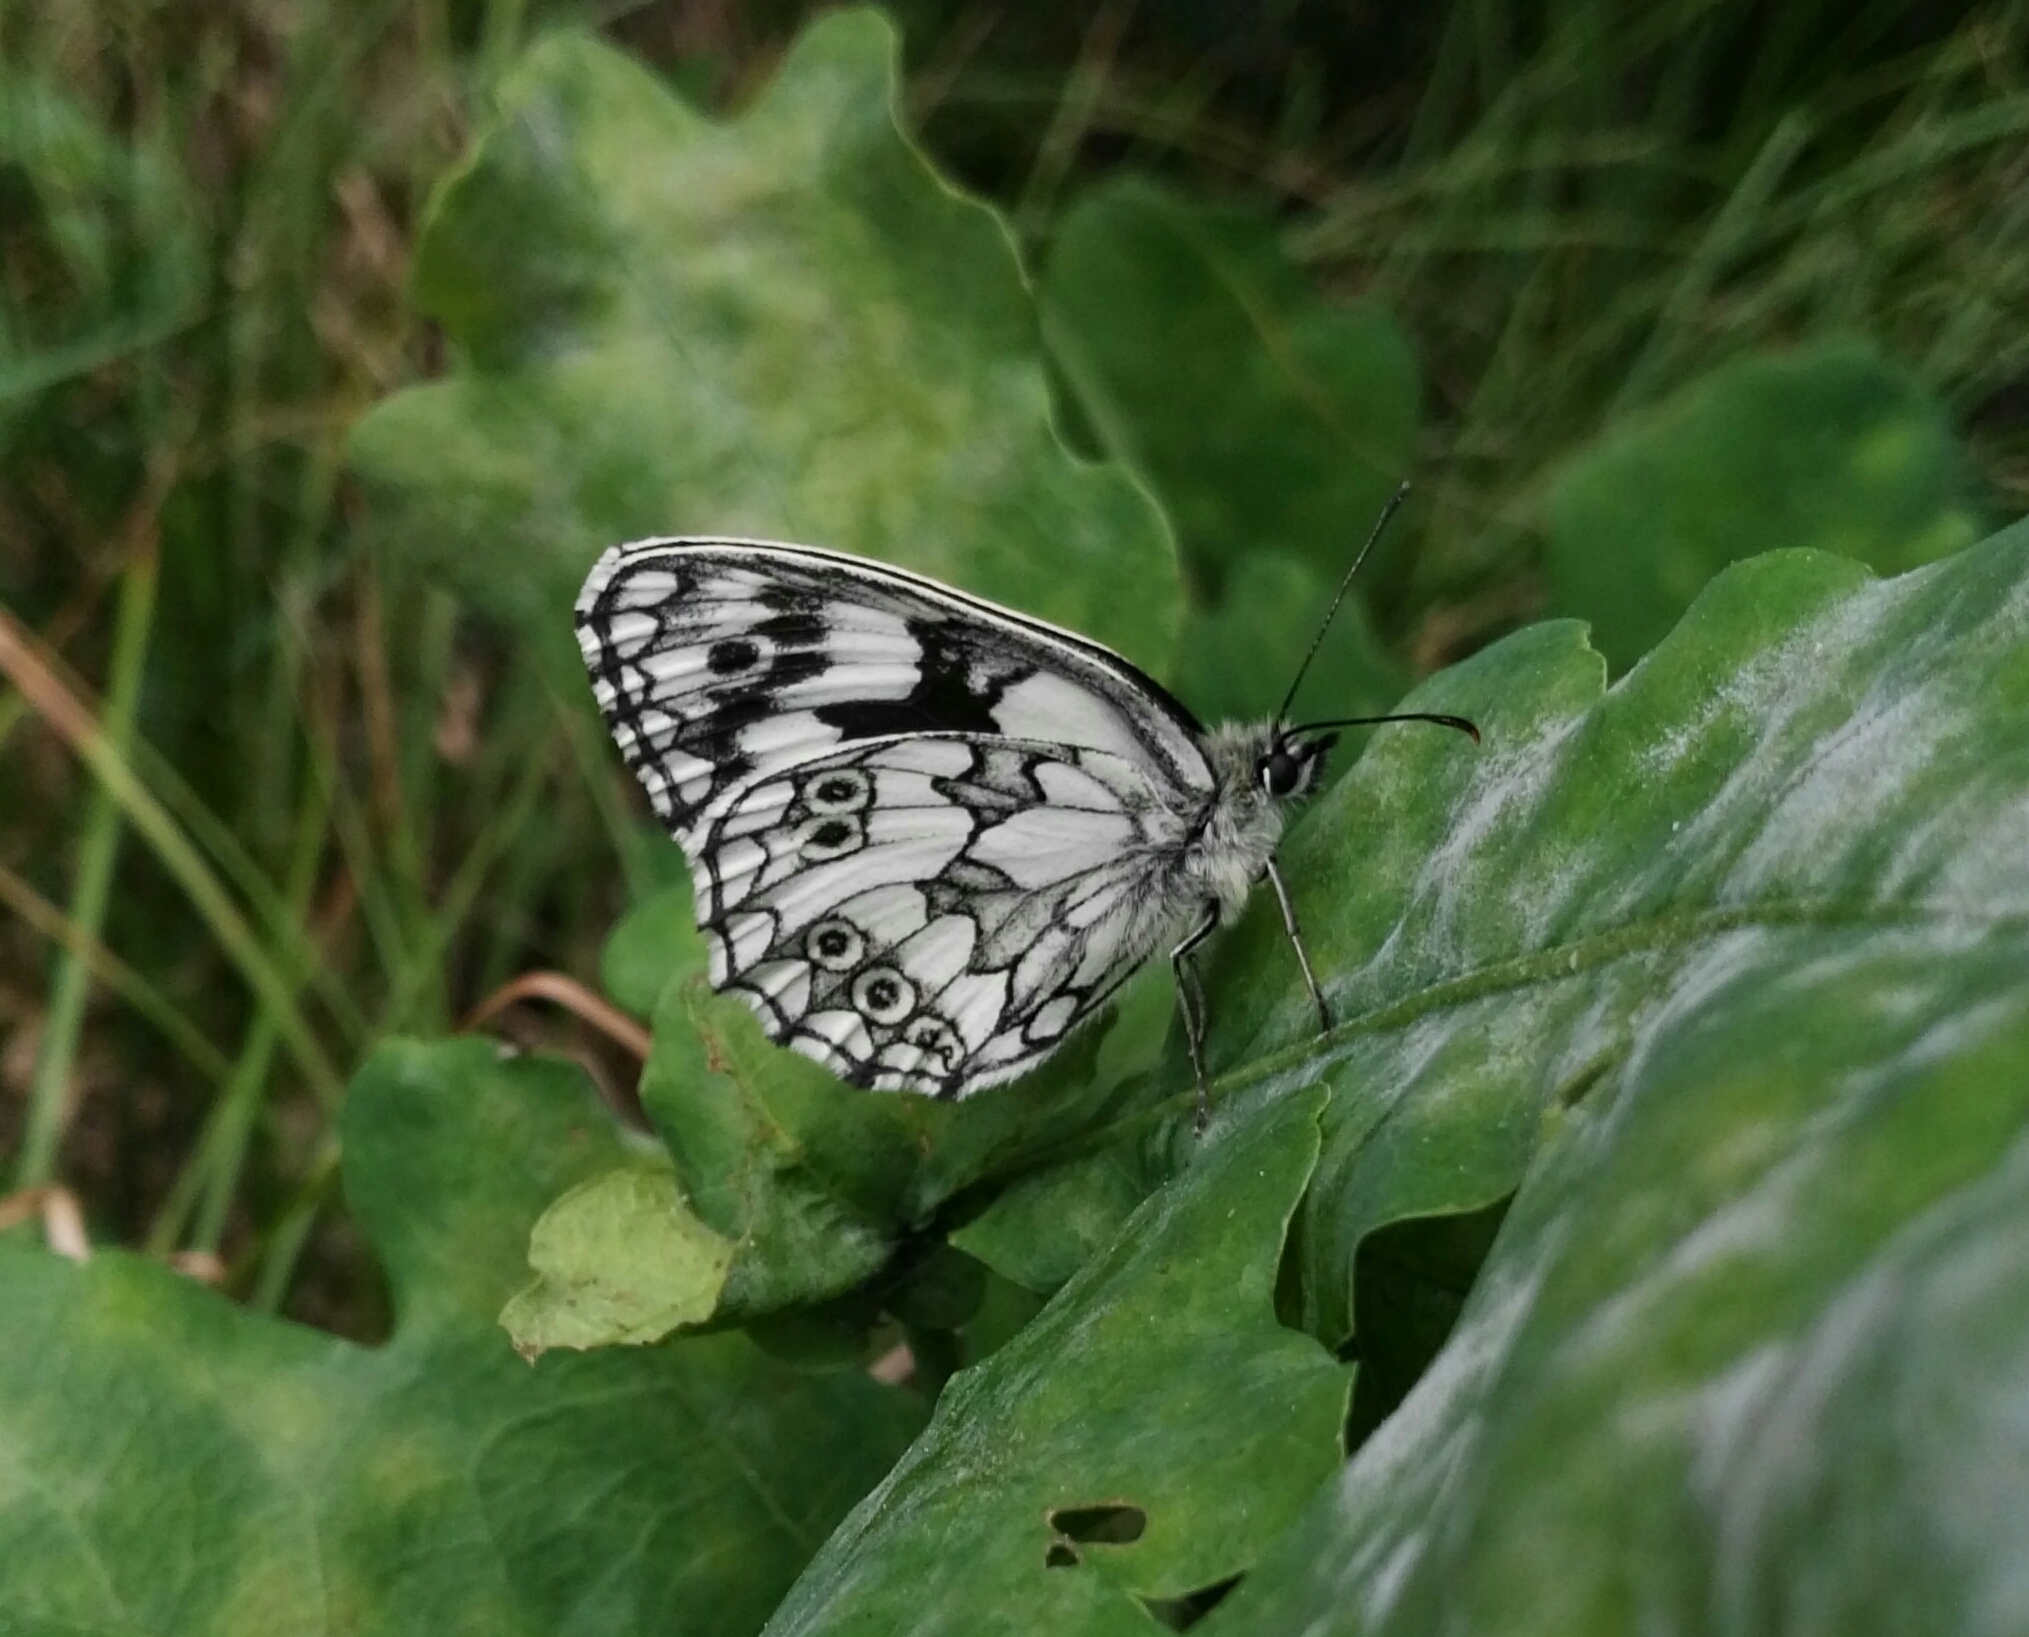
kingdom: Animalia
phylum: Arthropoda
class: Insecta
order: Lepidoptera
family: Nymphalidae
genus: Melanargia
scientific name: Melanargia galathea
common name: Marbled white
